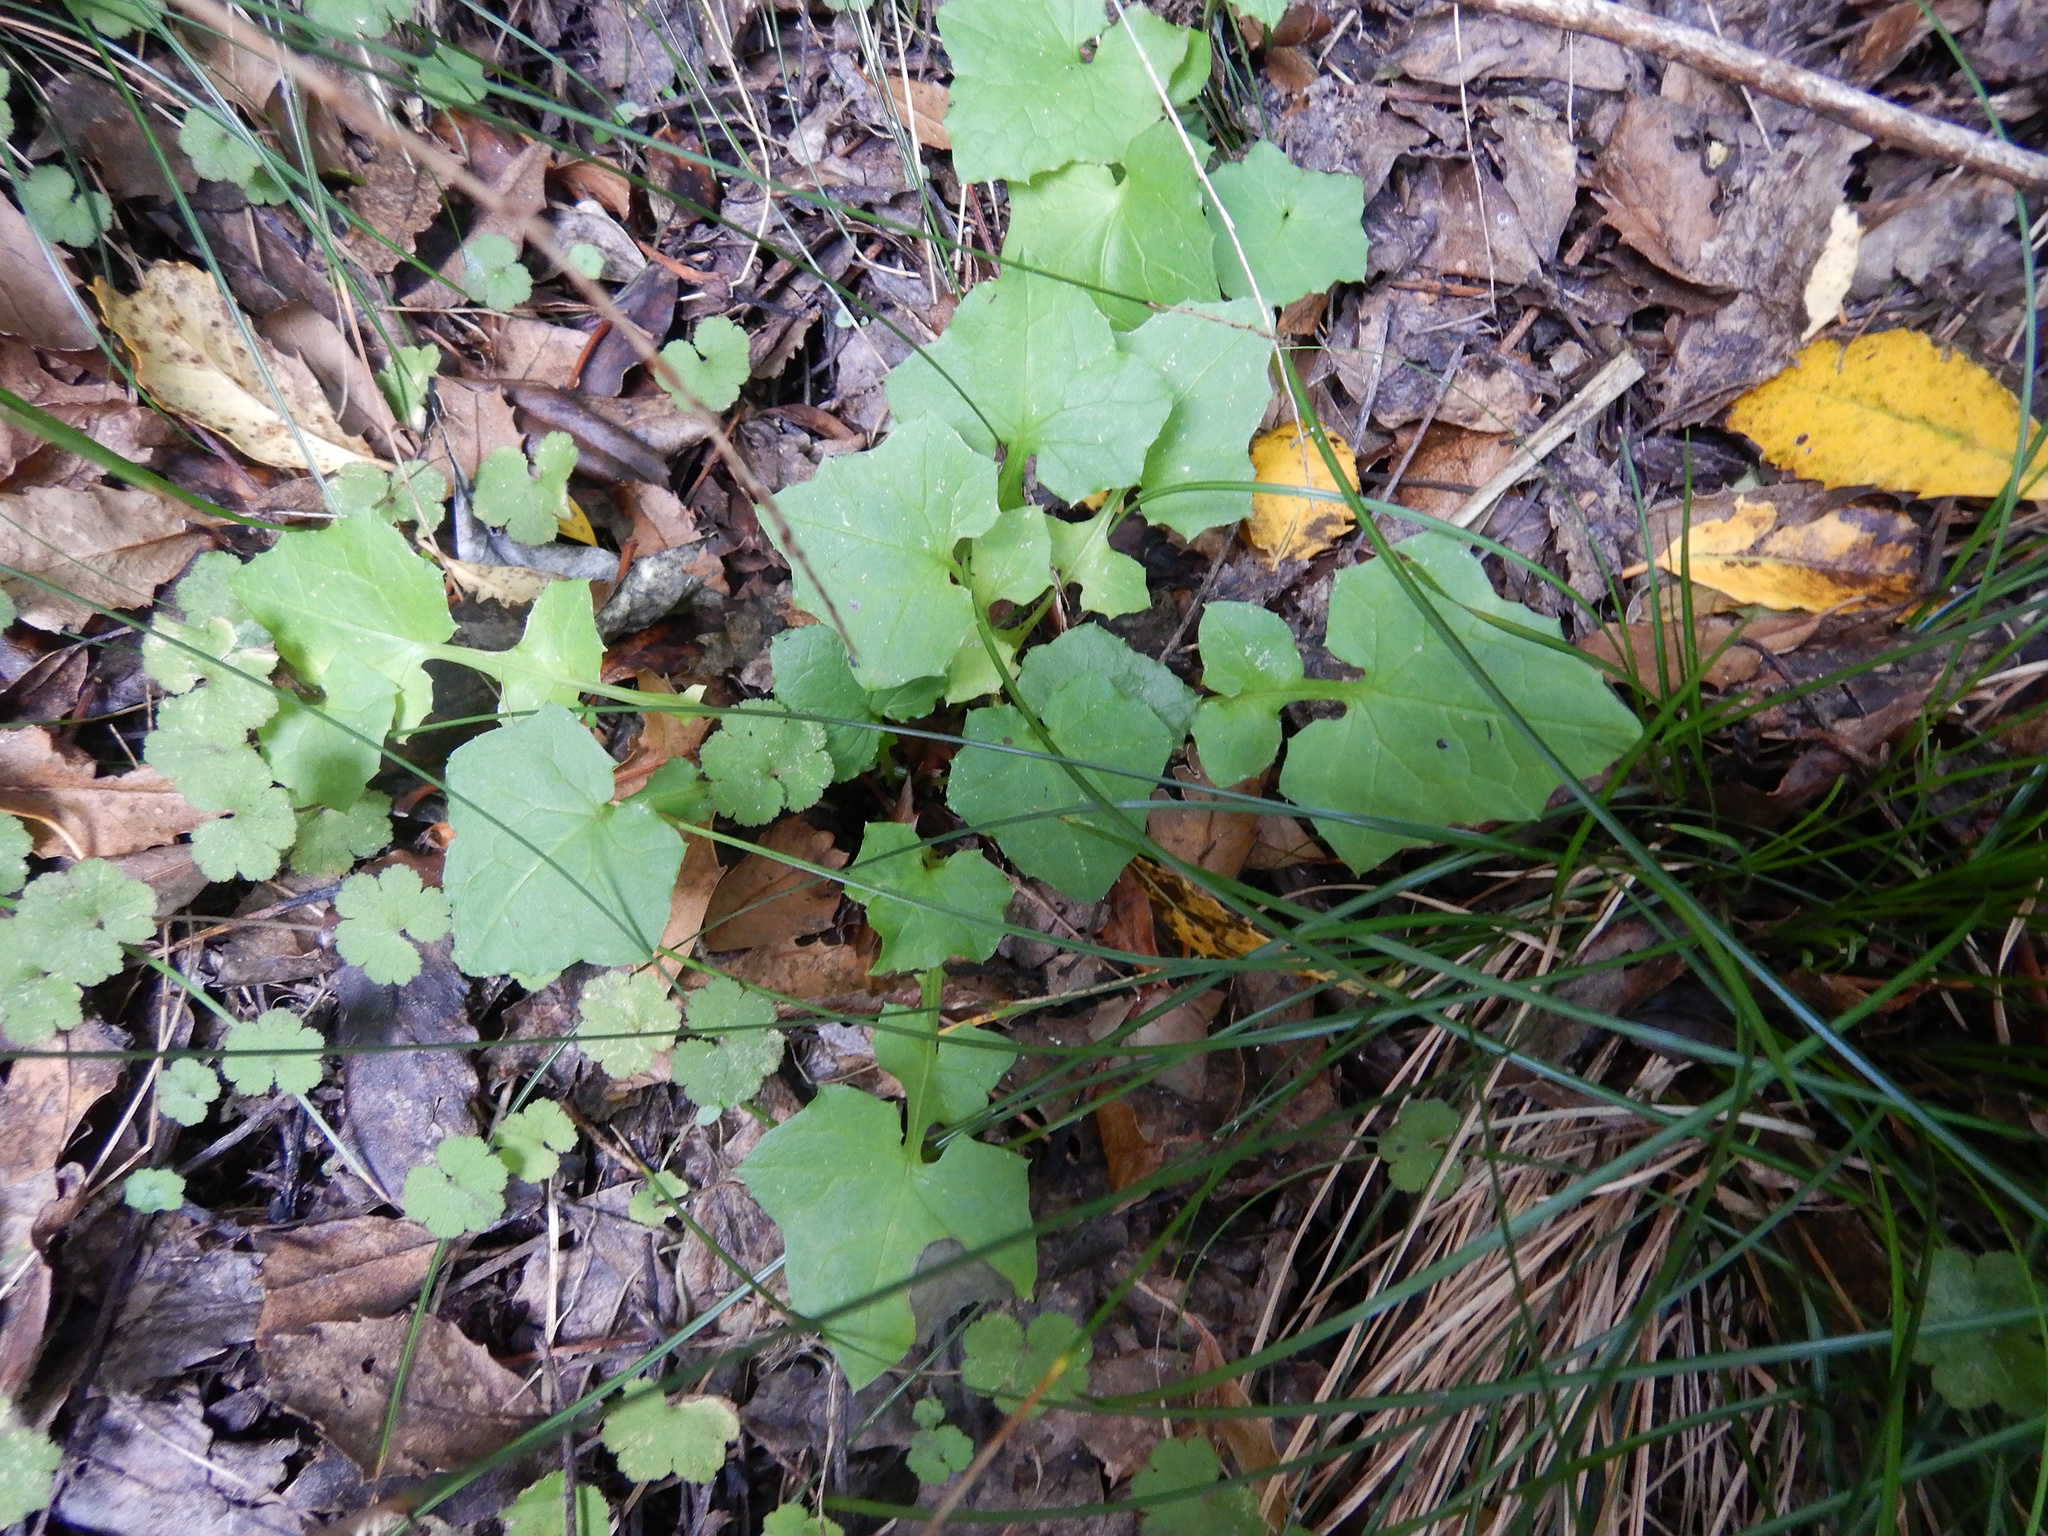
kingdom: Plantae
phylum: Tracheophyta
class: Magnoliopsida
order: Asterales
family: Asteraceae
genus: Mycelis
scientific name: Mycelis muralis
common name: Wall lettuce
